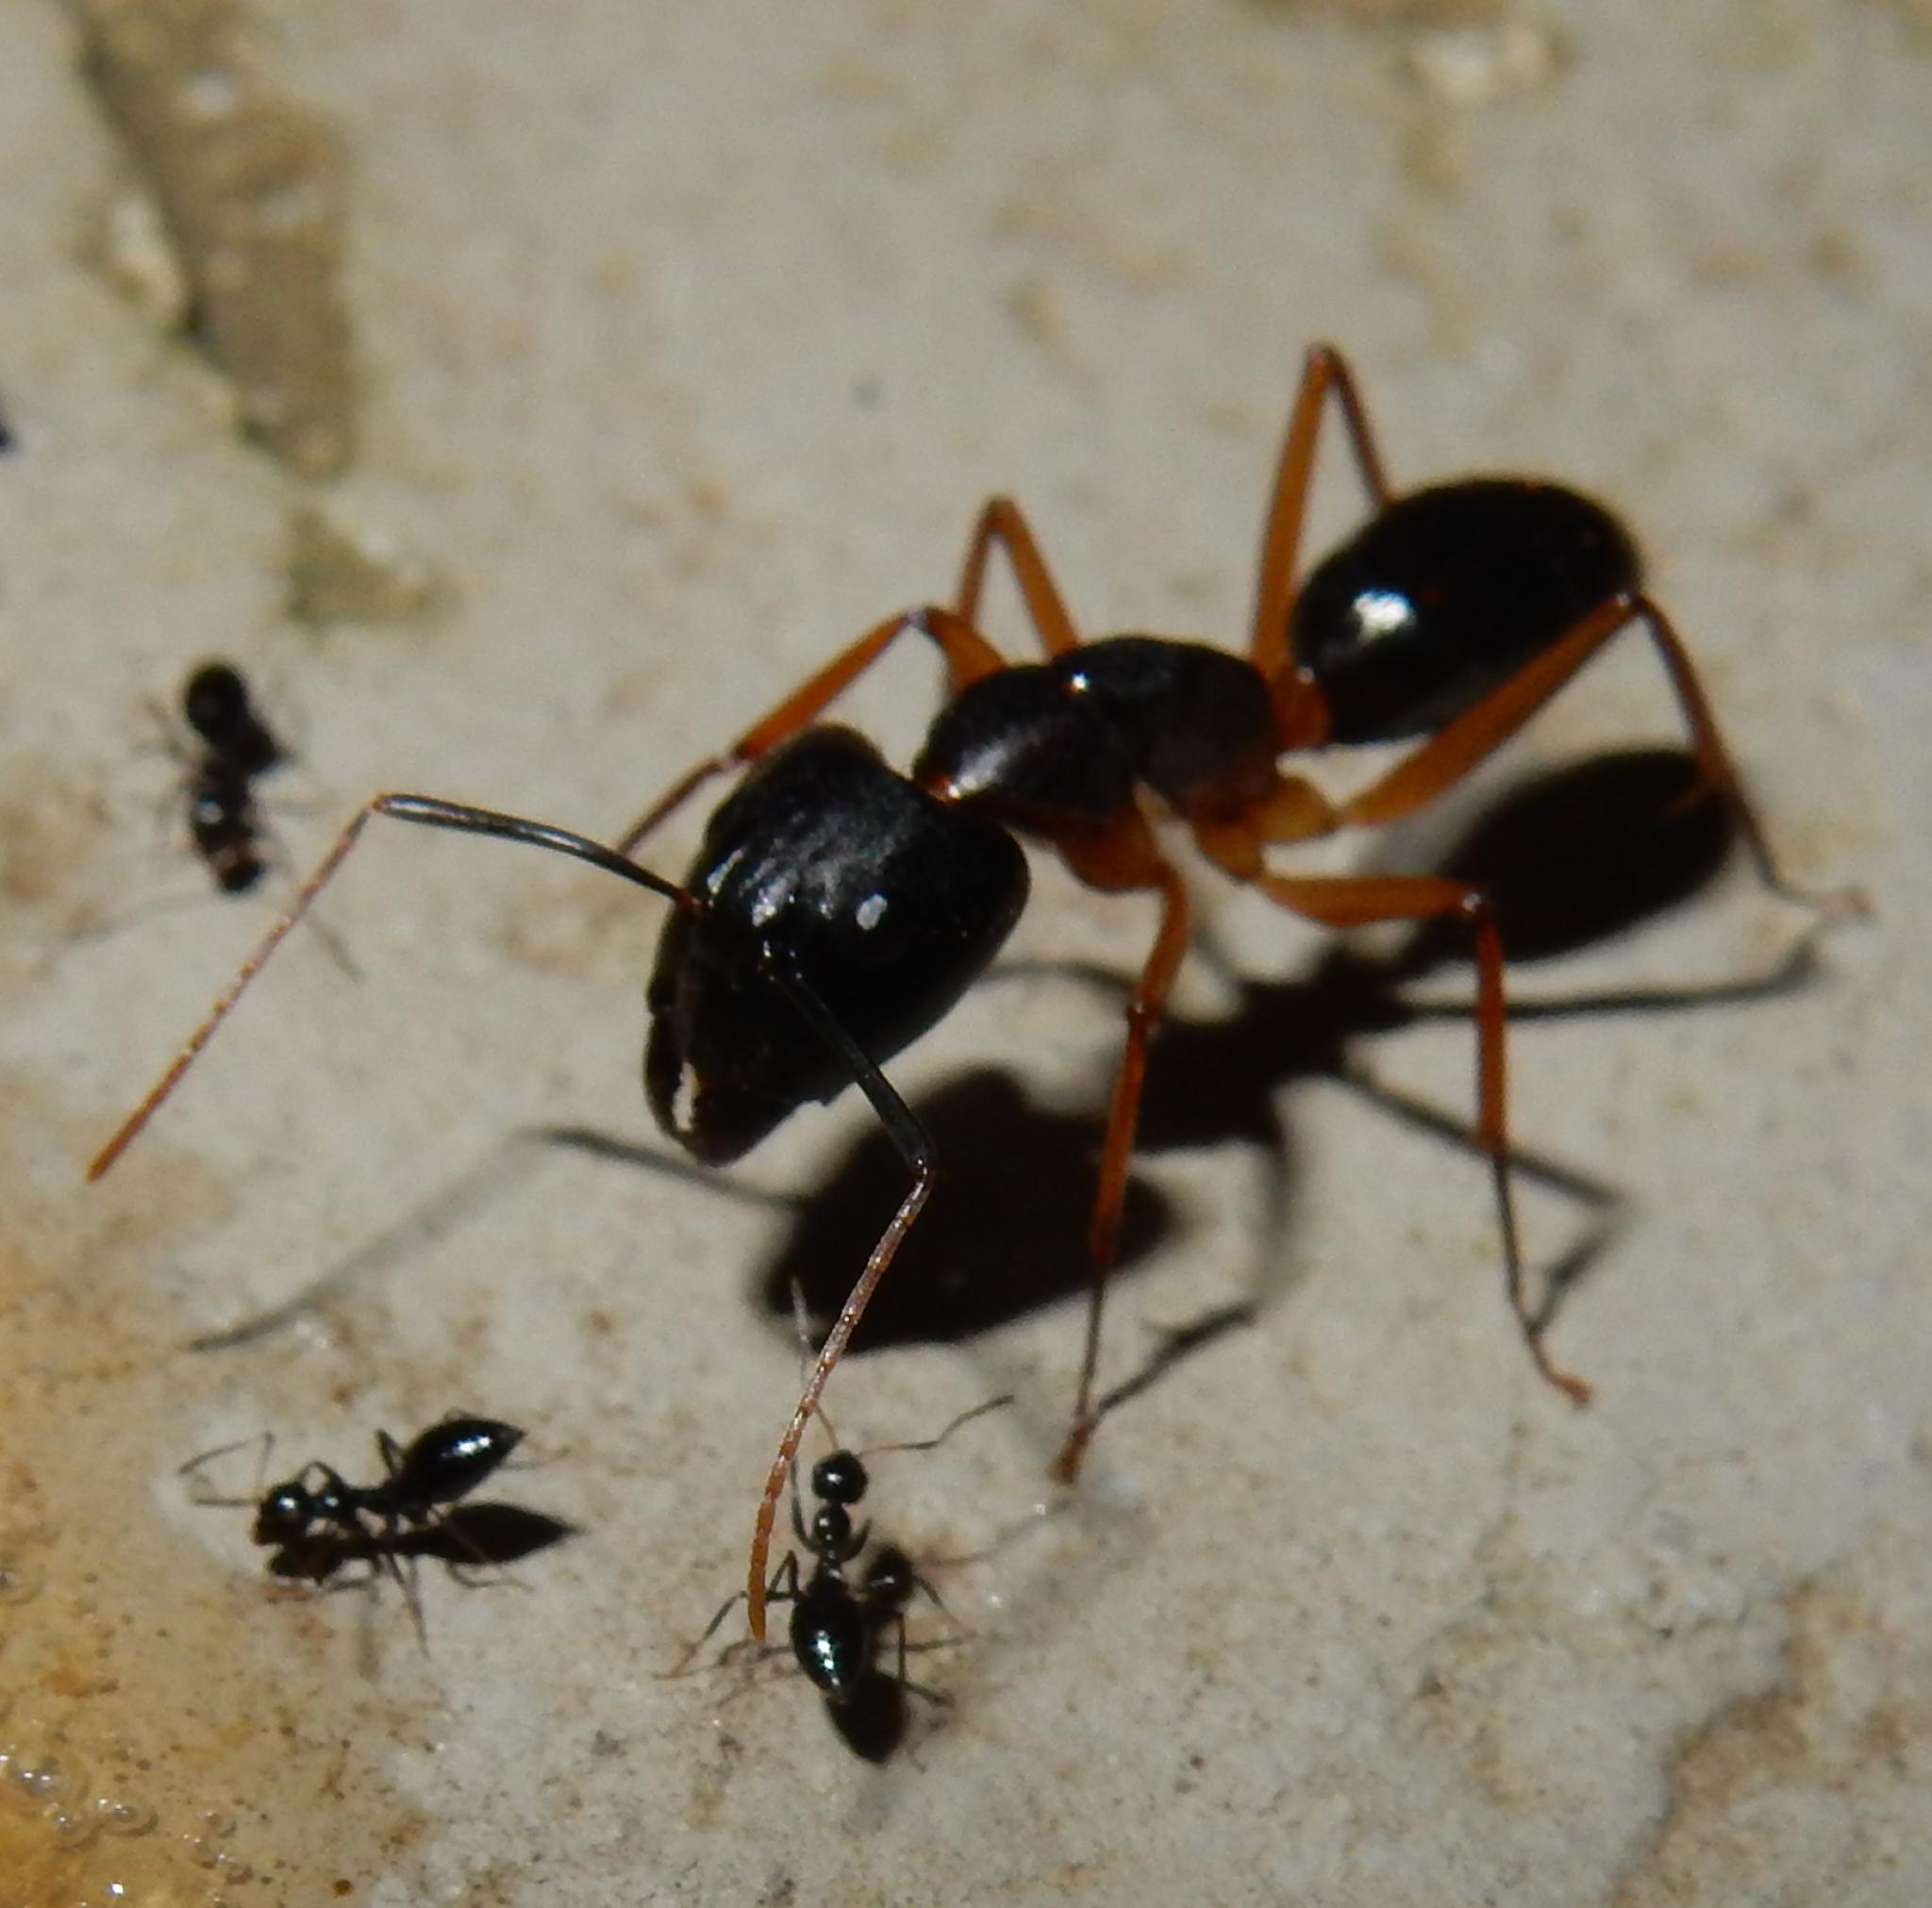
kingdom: Animalia
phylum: Arthropoda
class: Insecta
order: Hymenoptera
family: Formicidae
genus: Camponotus
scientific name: Camponotus maculatus
